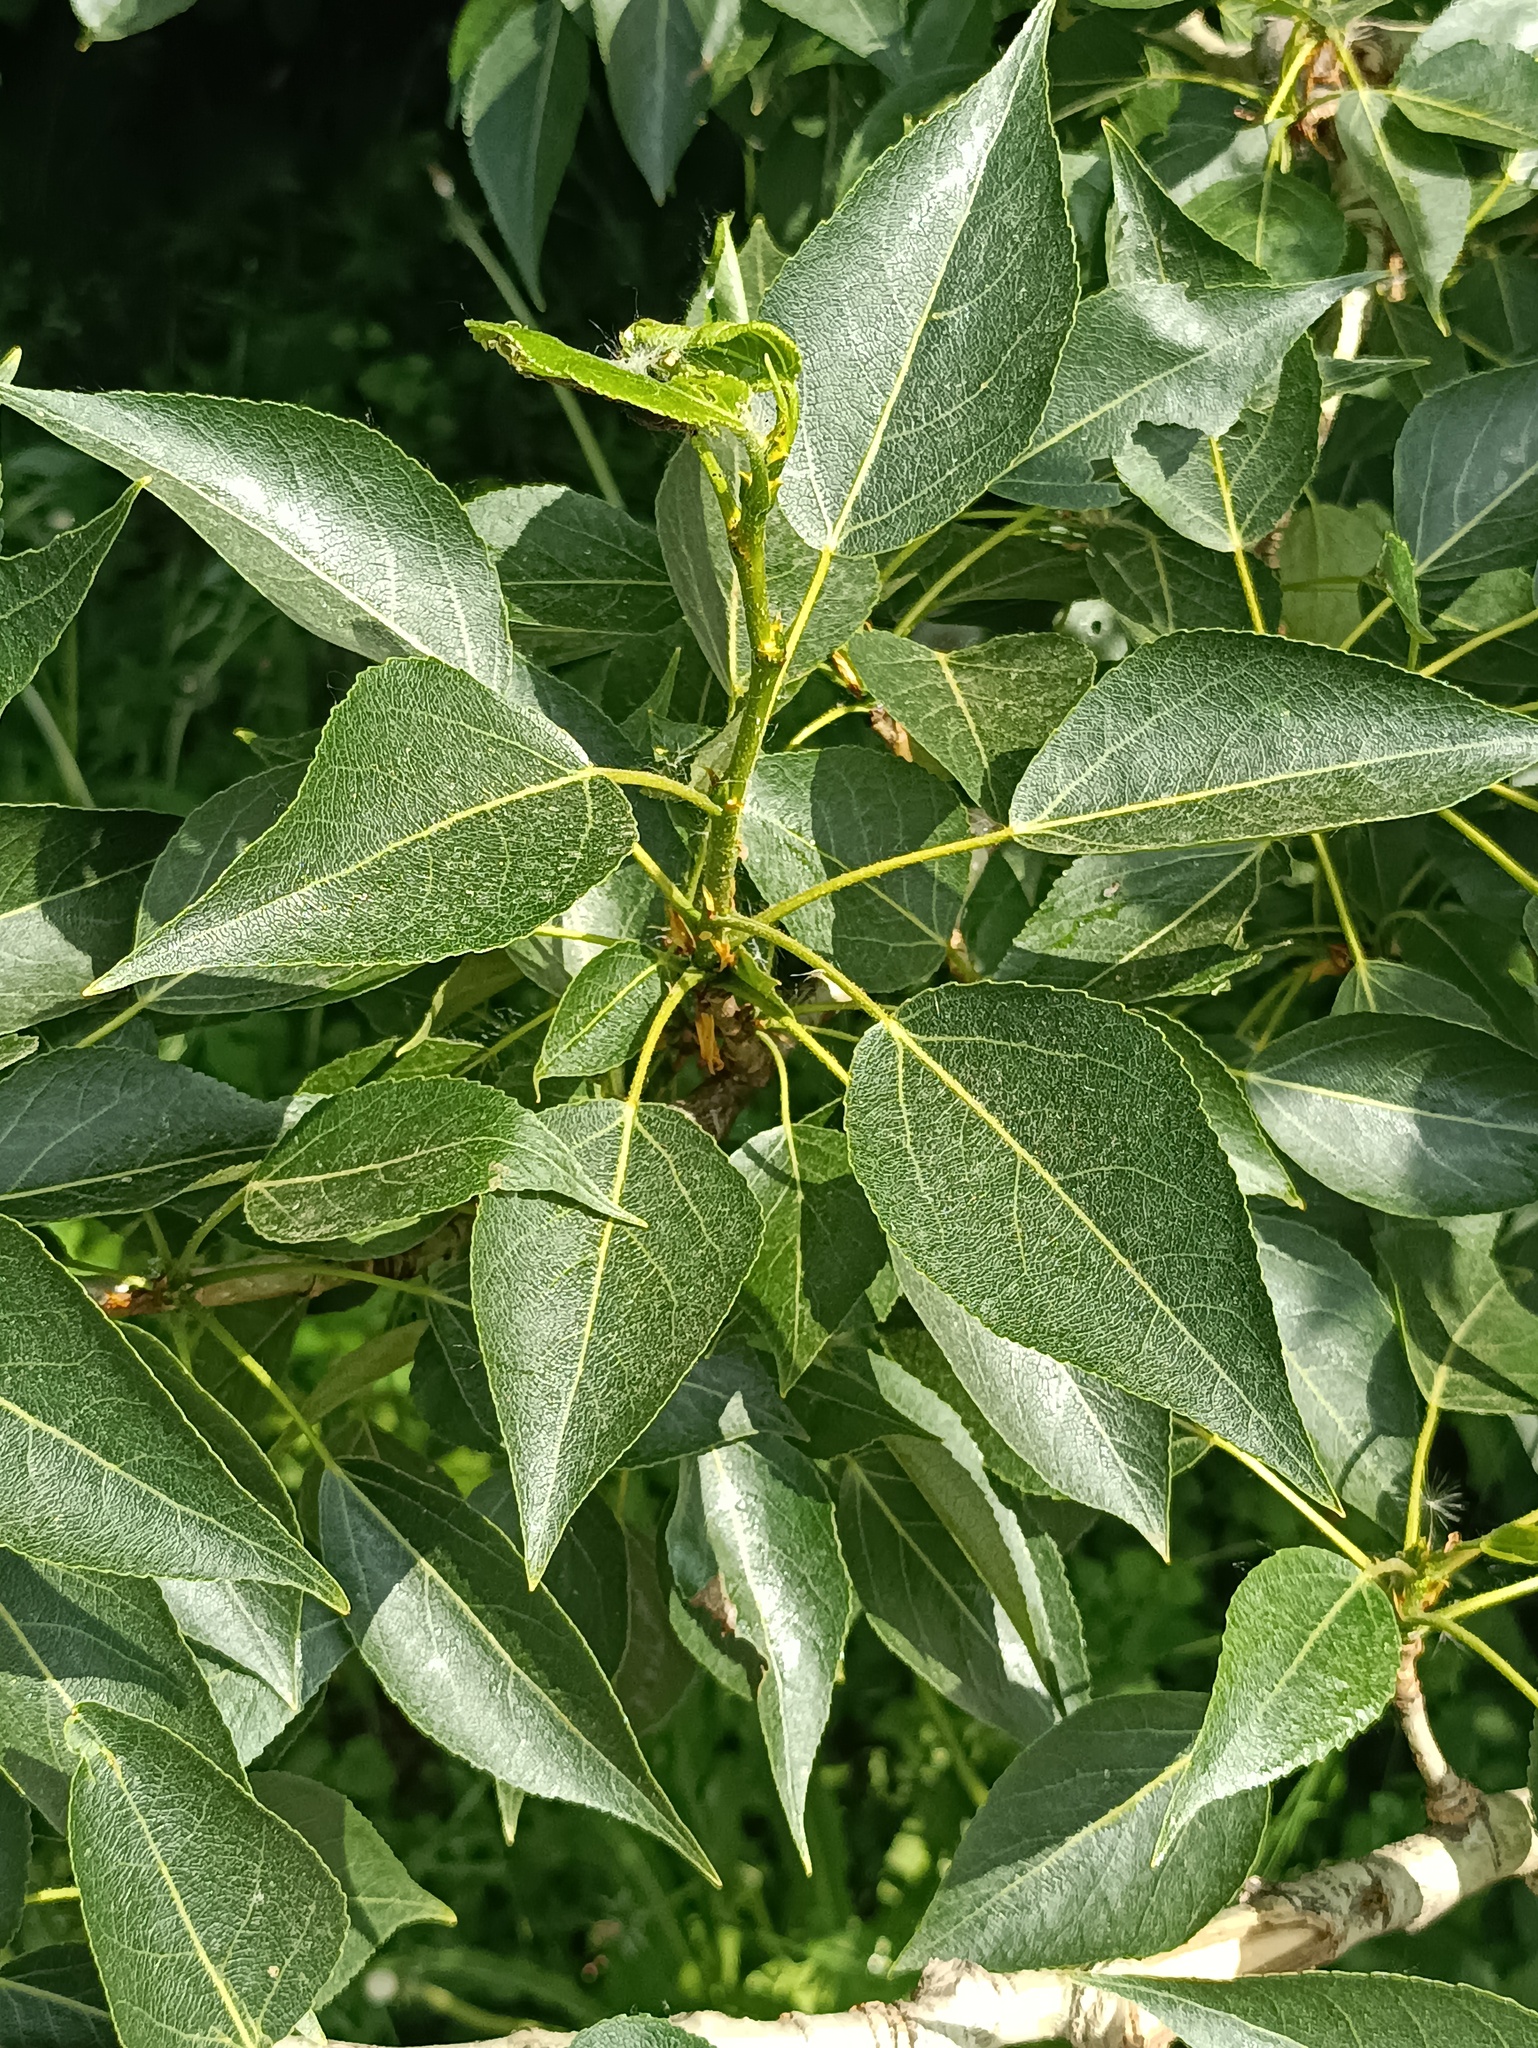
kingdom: Plantae
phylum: Tracheophyta
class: Magnoliopsida
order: Malpighiales
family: Salicaceae
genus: Populus
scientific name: Populus sibirica
